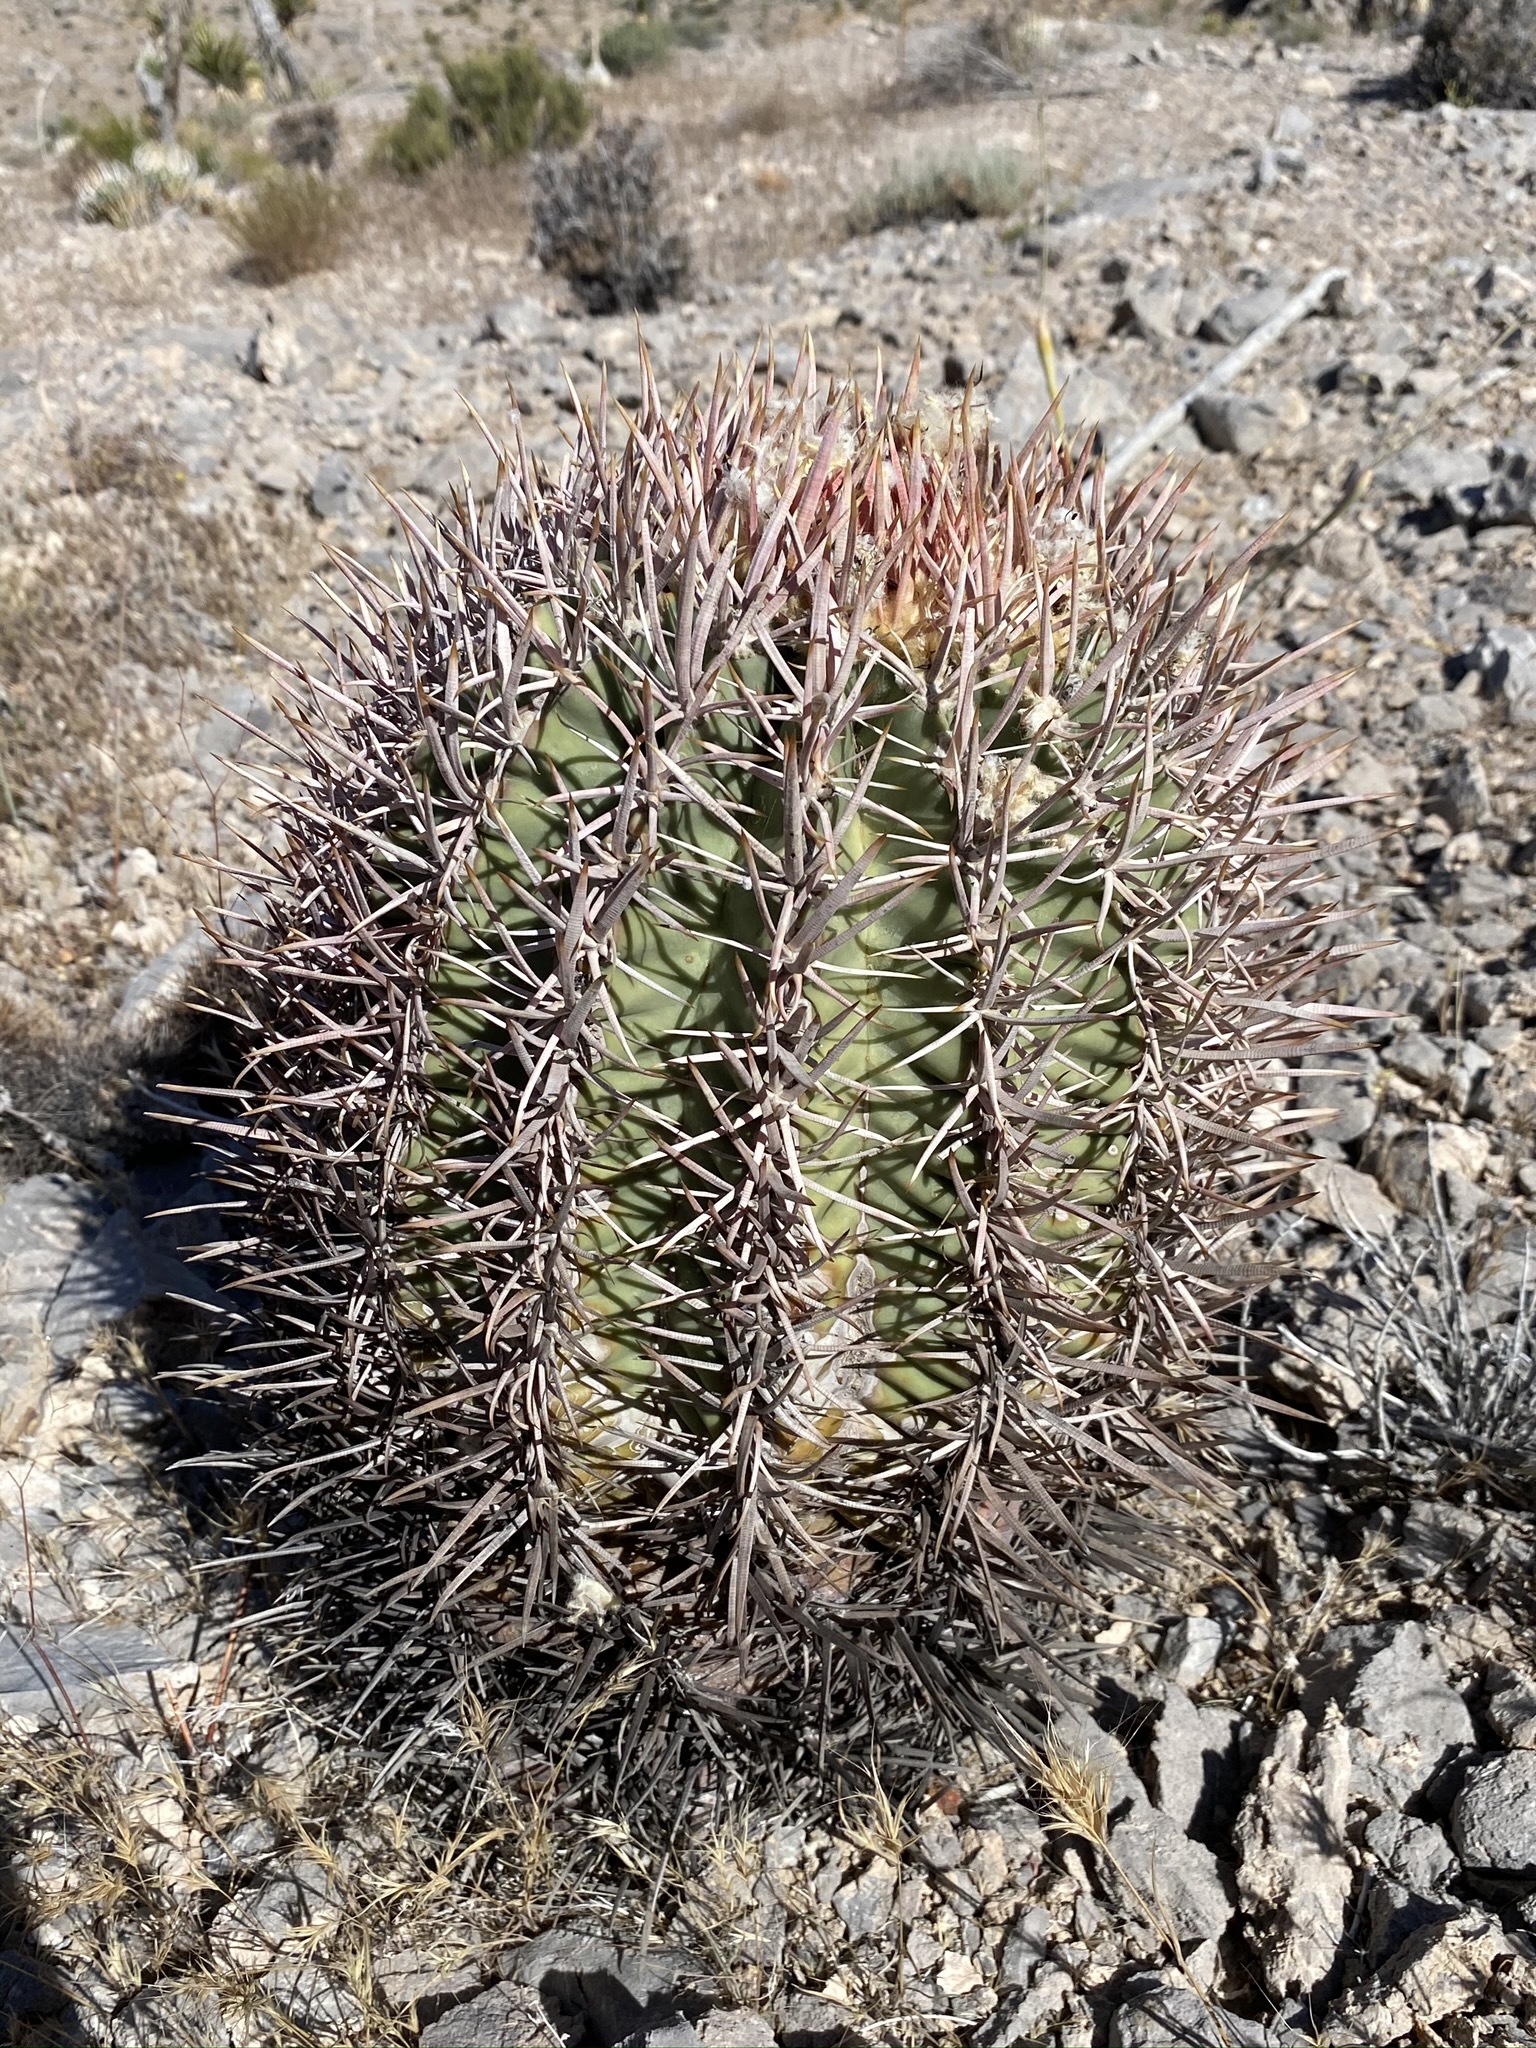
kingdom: Plantae
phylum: Tracheophyta
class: Magnoliopsida
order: Caryophyllales
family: Cactaceae
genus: Echinocactus
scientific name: Echinocactus polycephalus
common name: Cottontop cactus
